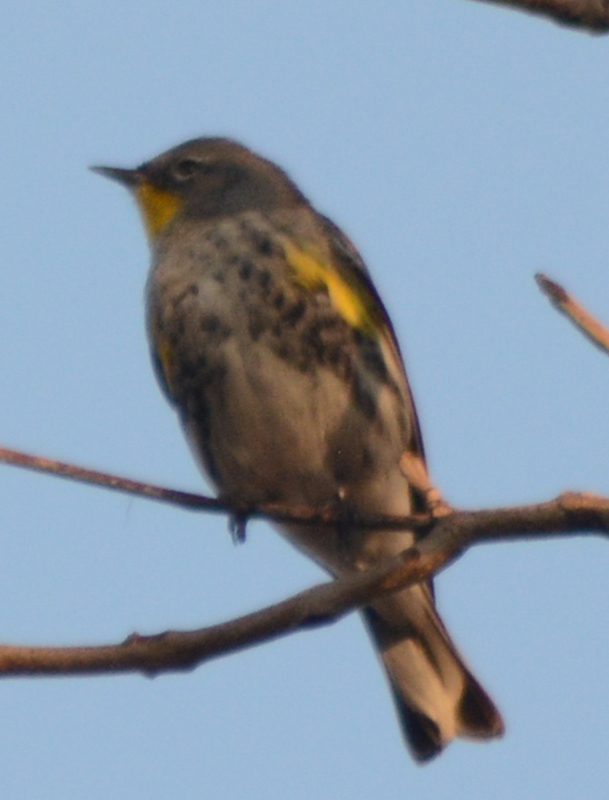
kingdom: Animalia
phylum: Chordata
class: Aves
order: Passeriformes
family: Parulidae
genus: Setophaga
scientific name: Setophaga auduboni
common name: Audubon's warbler
